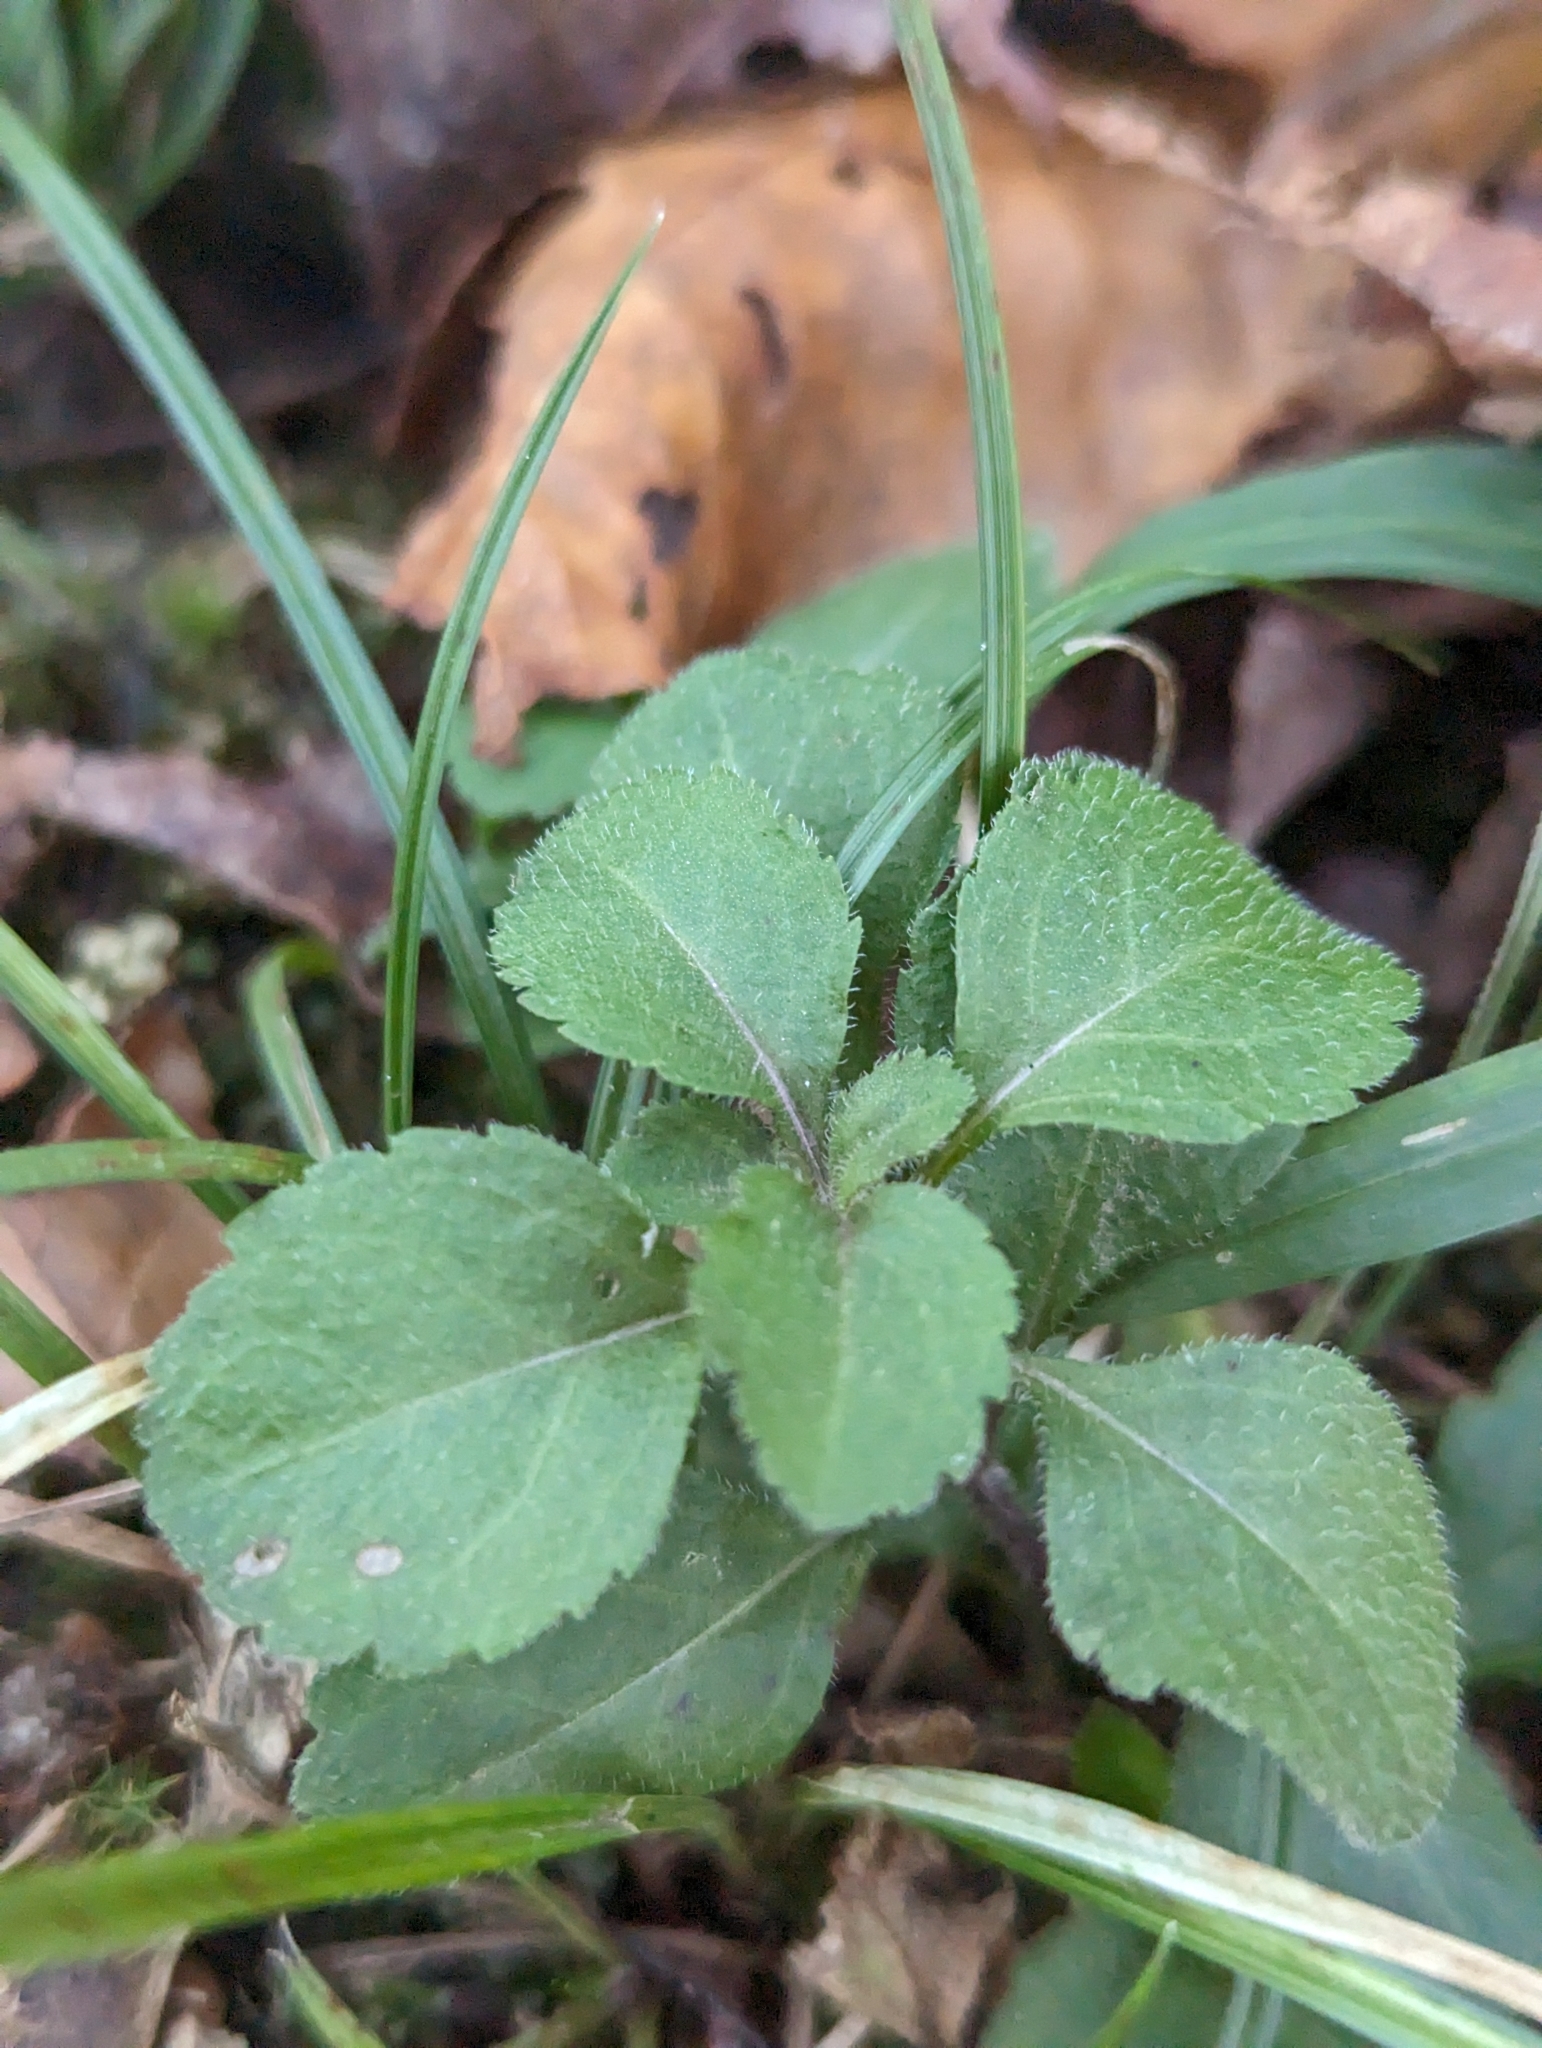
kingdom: Plantae
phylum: Tracheophyta
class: Magnoliopsida
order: Lamiales
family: Plantaginaceae
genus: Veronica
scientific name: Veronica officinalis
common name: Common speedwell
